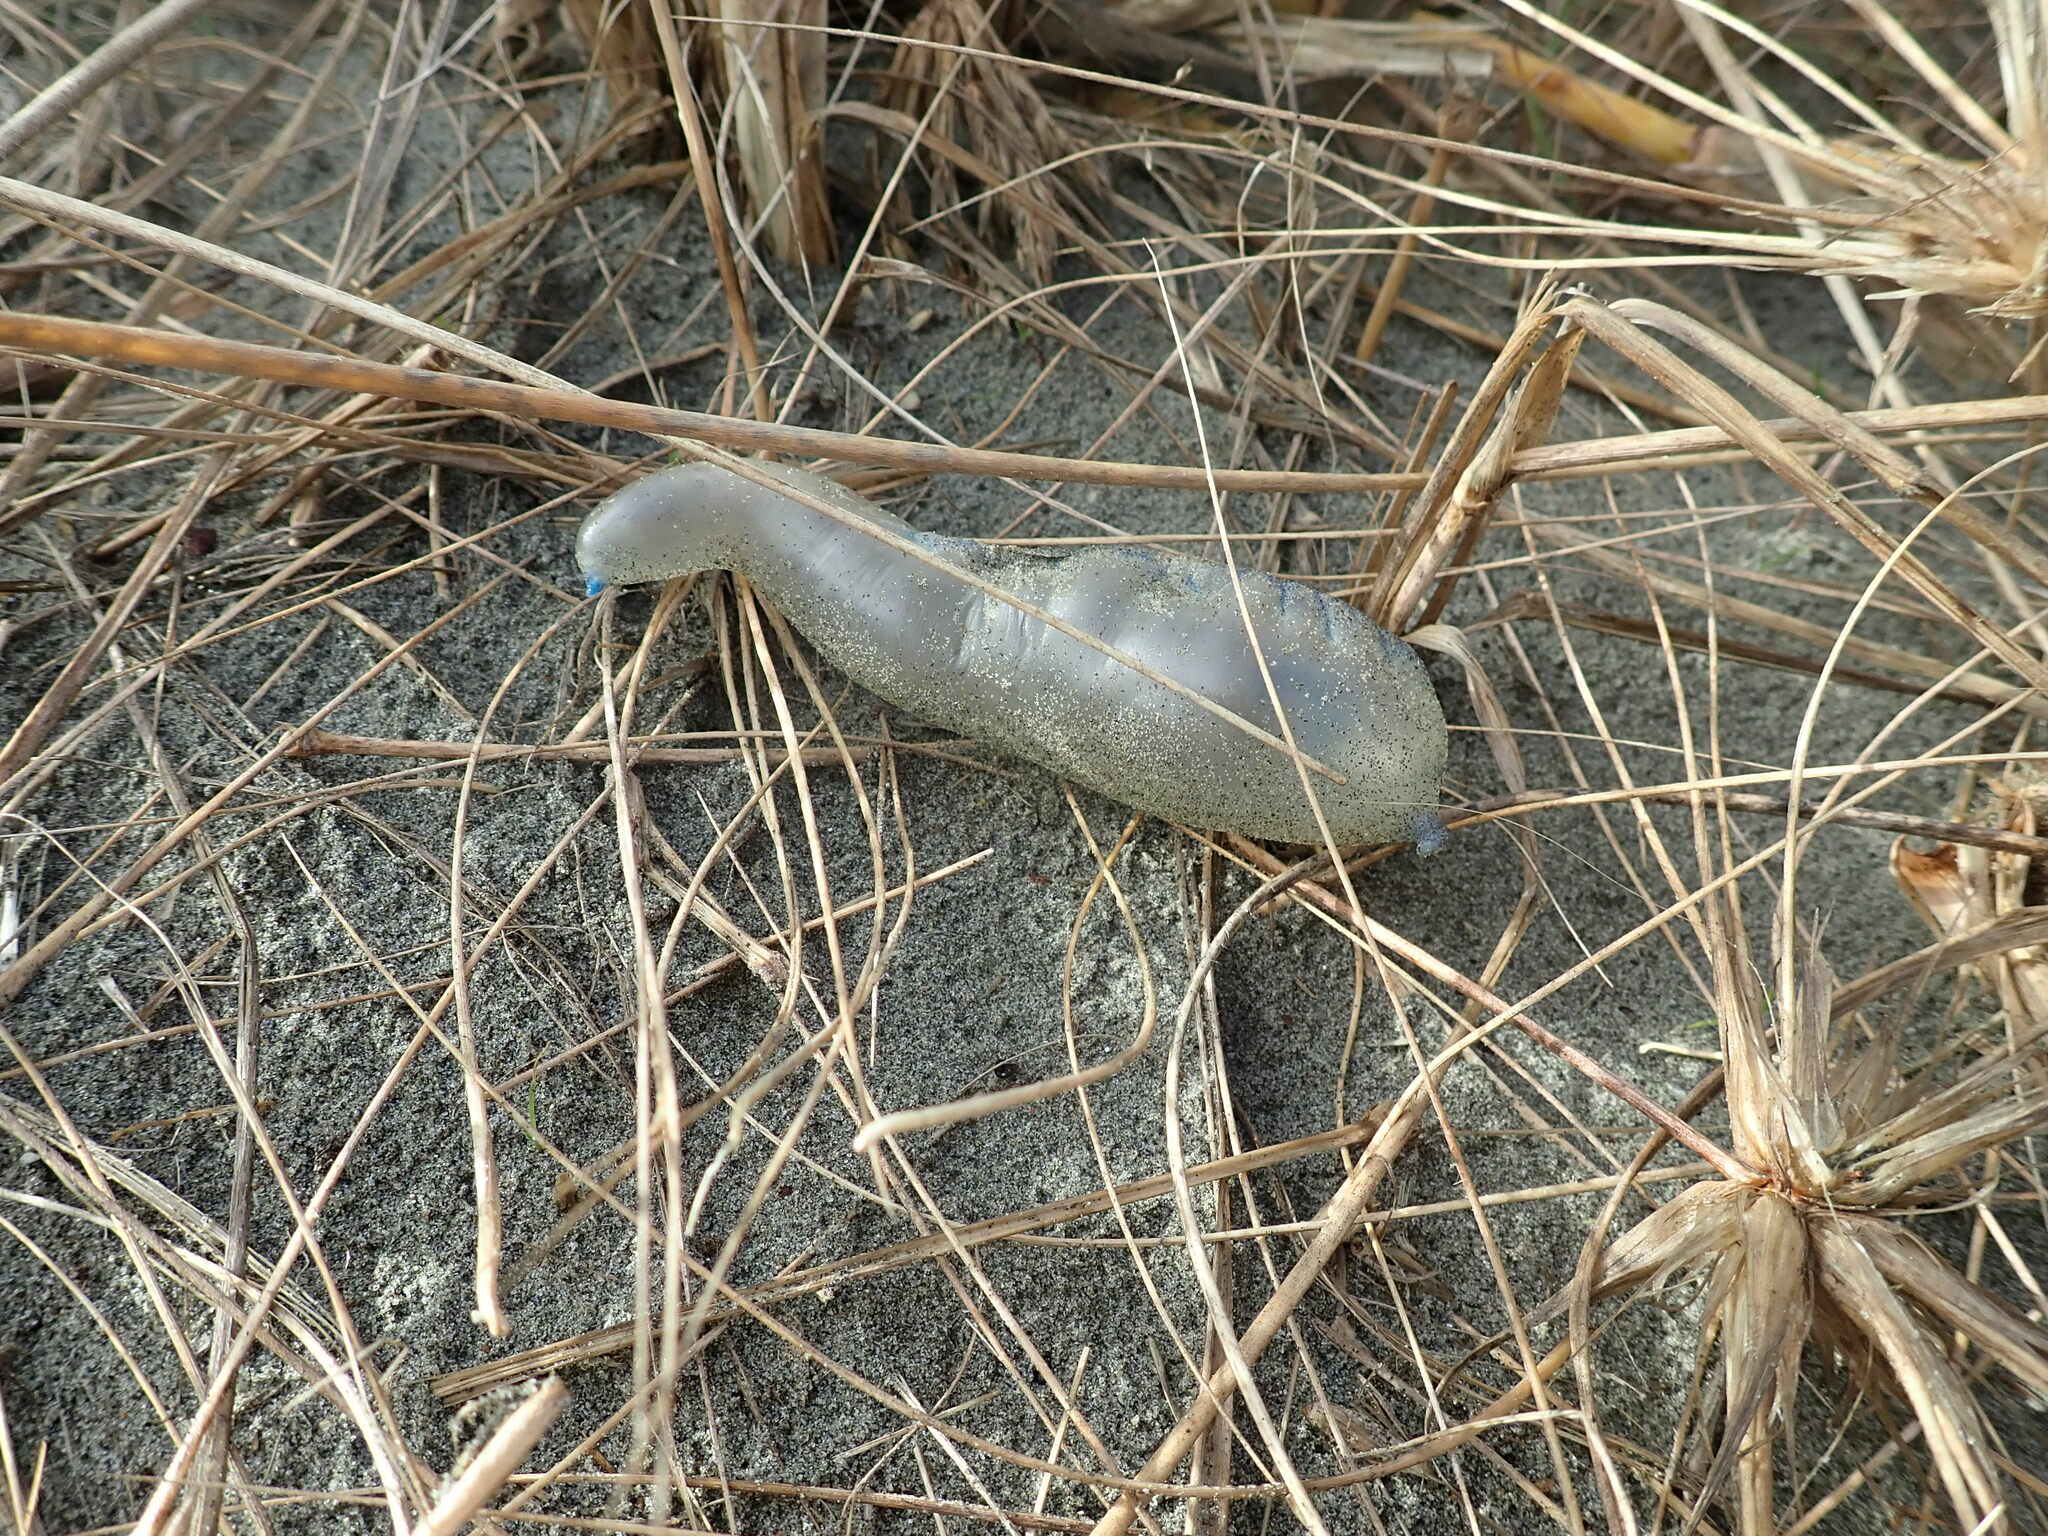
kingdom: Animalia
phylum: Cnidaria
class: Hydrozoa
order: Siphonophorae
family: Physaliidae
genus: Physalia
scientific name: Physalia physalis
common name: Portuguese man-of-war
